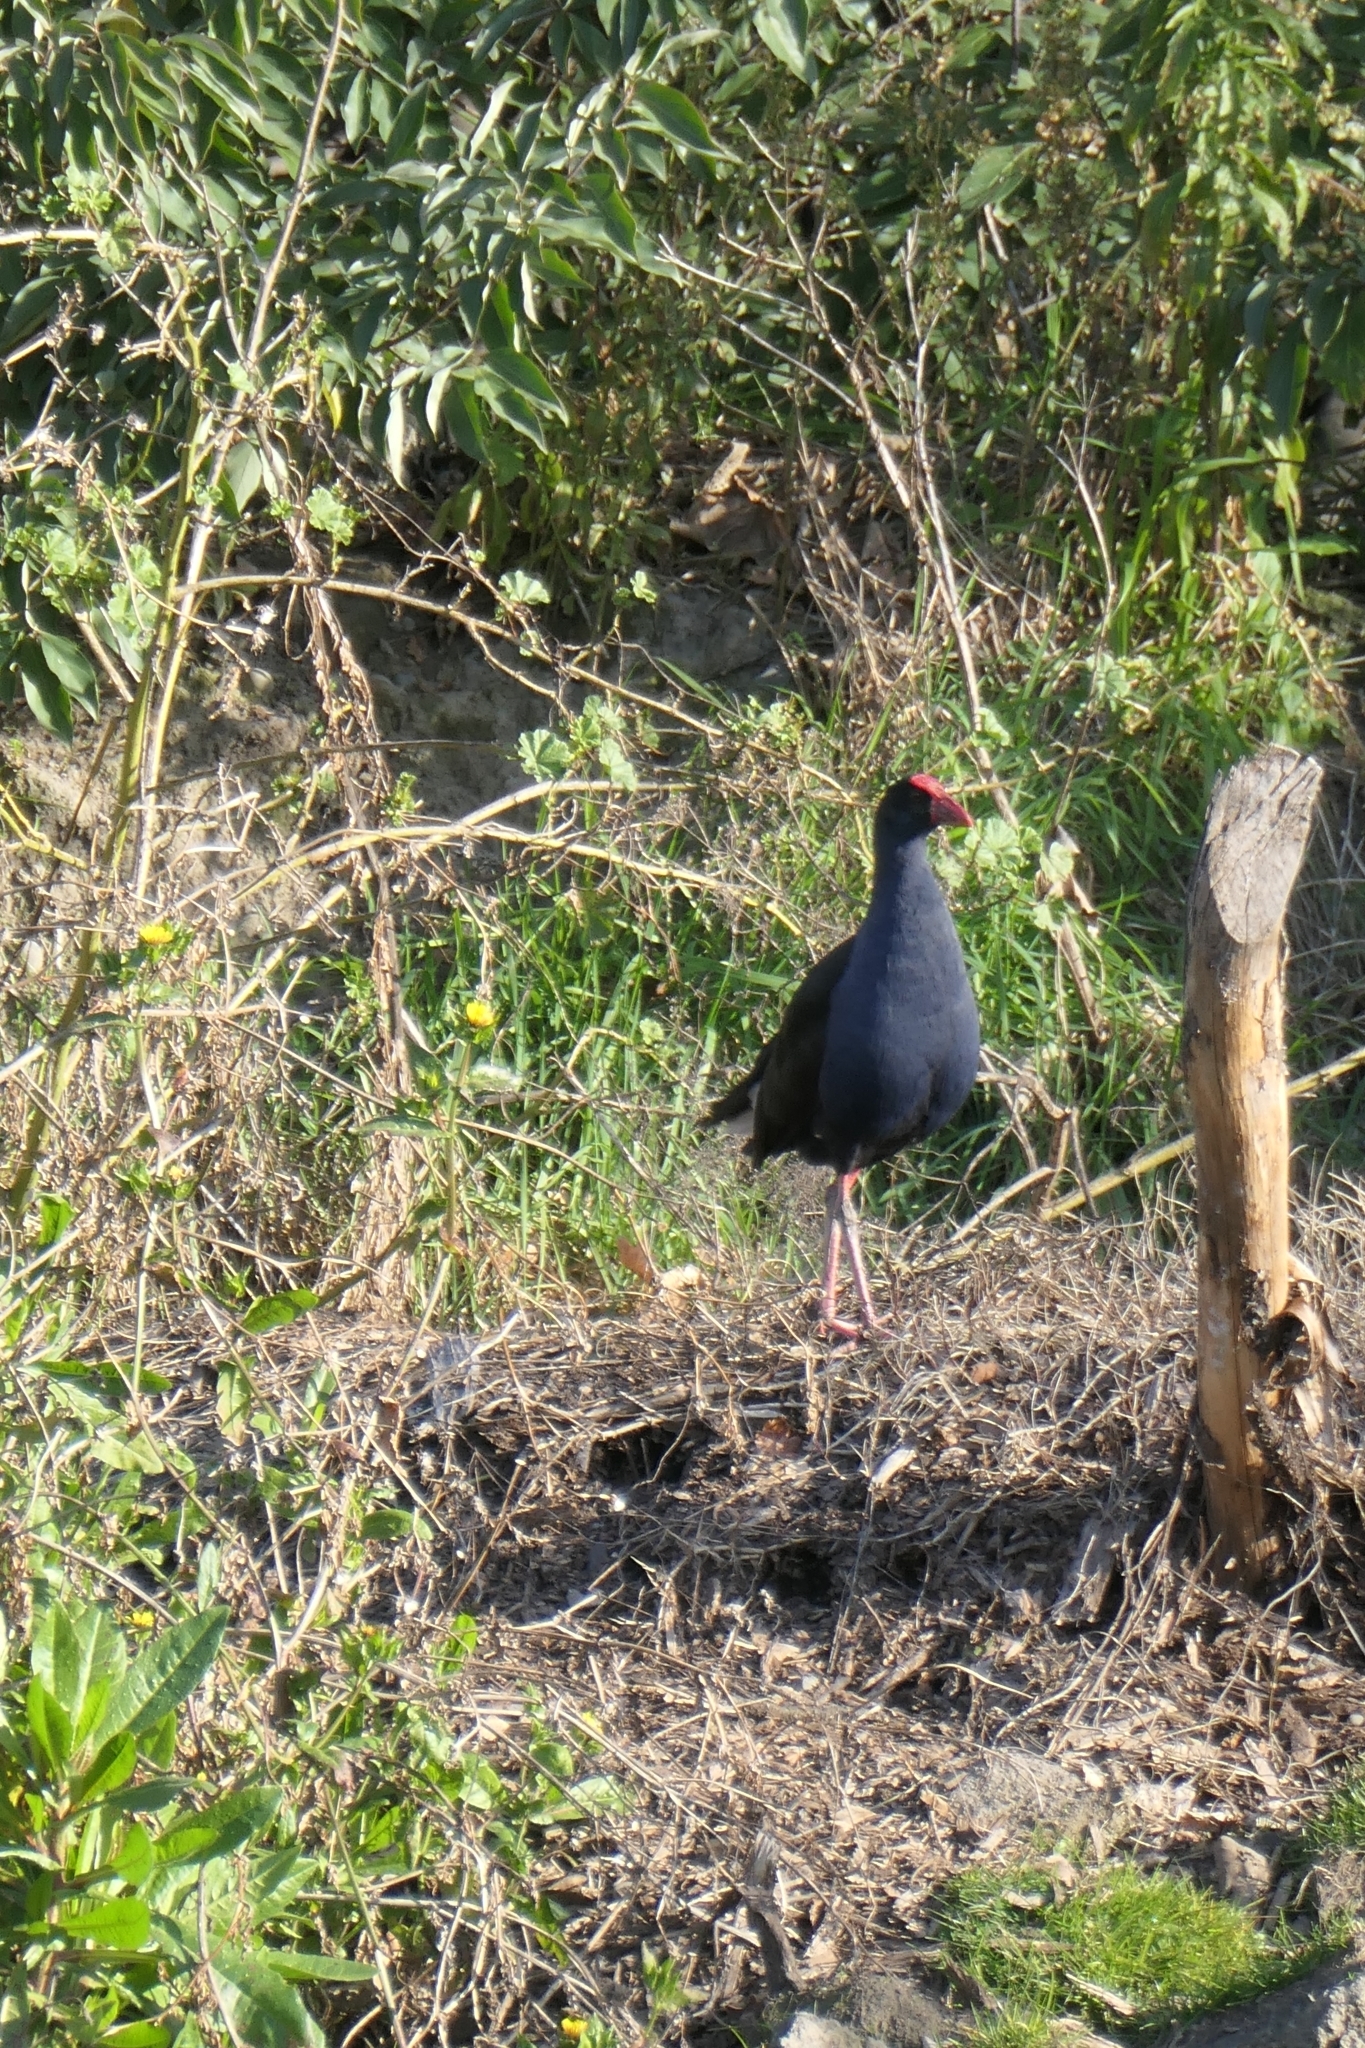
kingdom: Animalia
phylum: Chordata
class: Aves
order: Gruiformes
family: Rallidae
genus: Porphyrio
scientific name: Porphyrio melanotus
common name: Australasian swamphen
